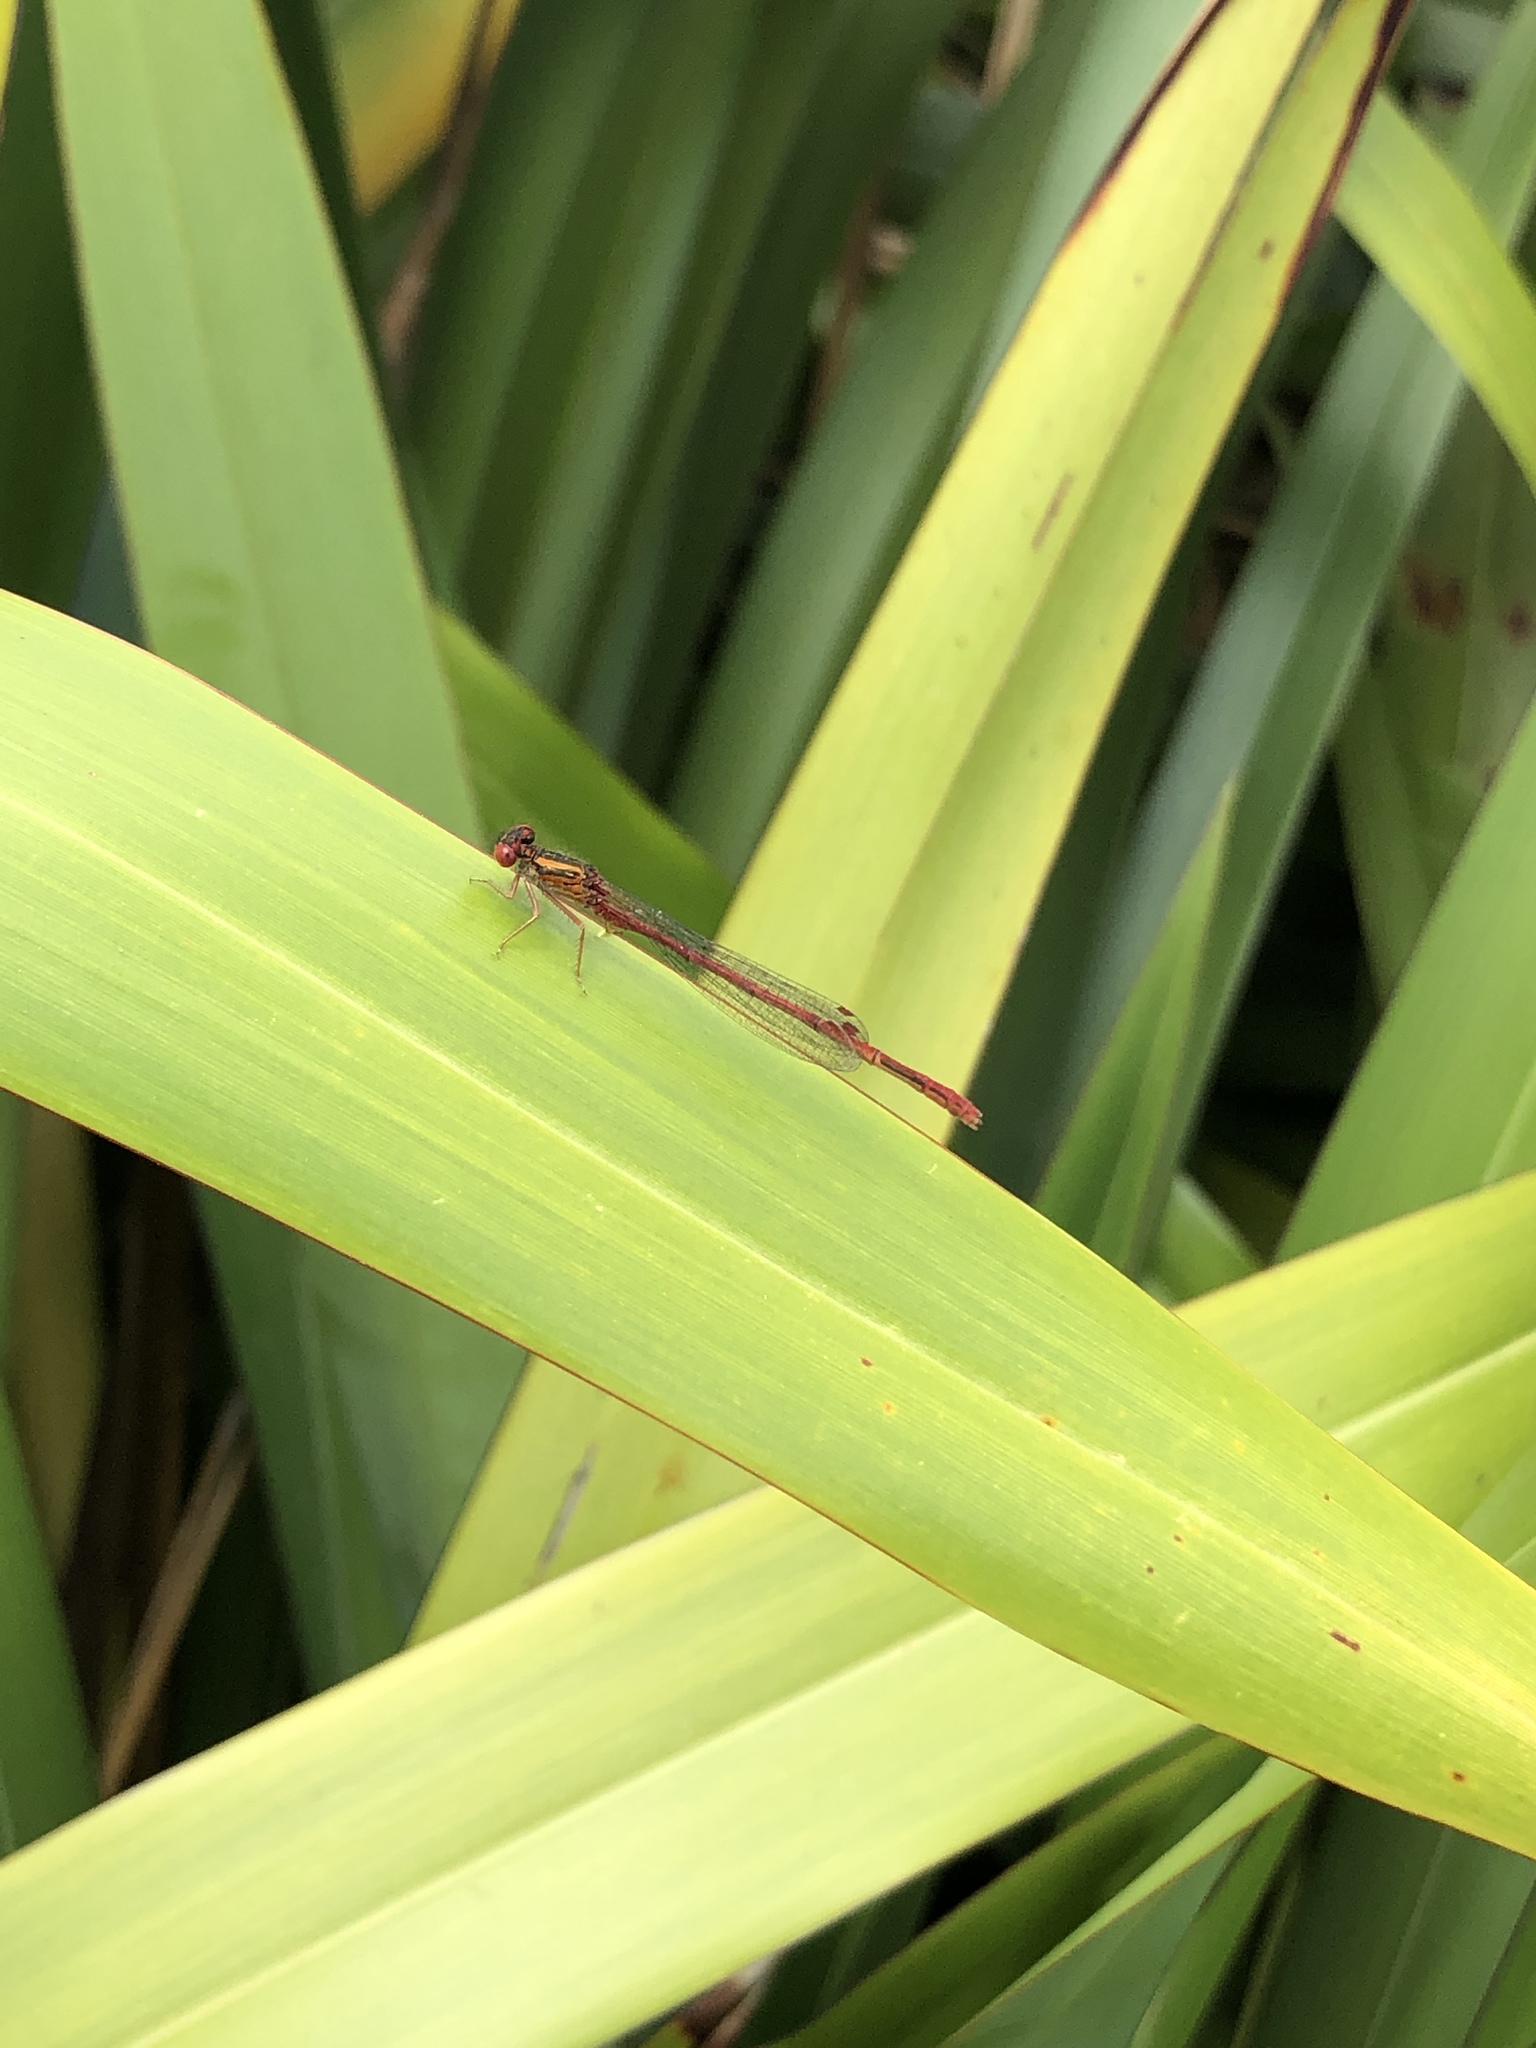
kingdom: Animalia
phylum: Arthropoda
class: Insecta
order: Odonata
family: Coenagrionidae
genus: Xanthocnemis
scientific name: Xanthocnemis zealandica
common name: Common redcoat damselfly
